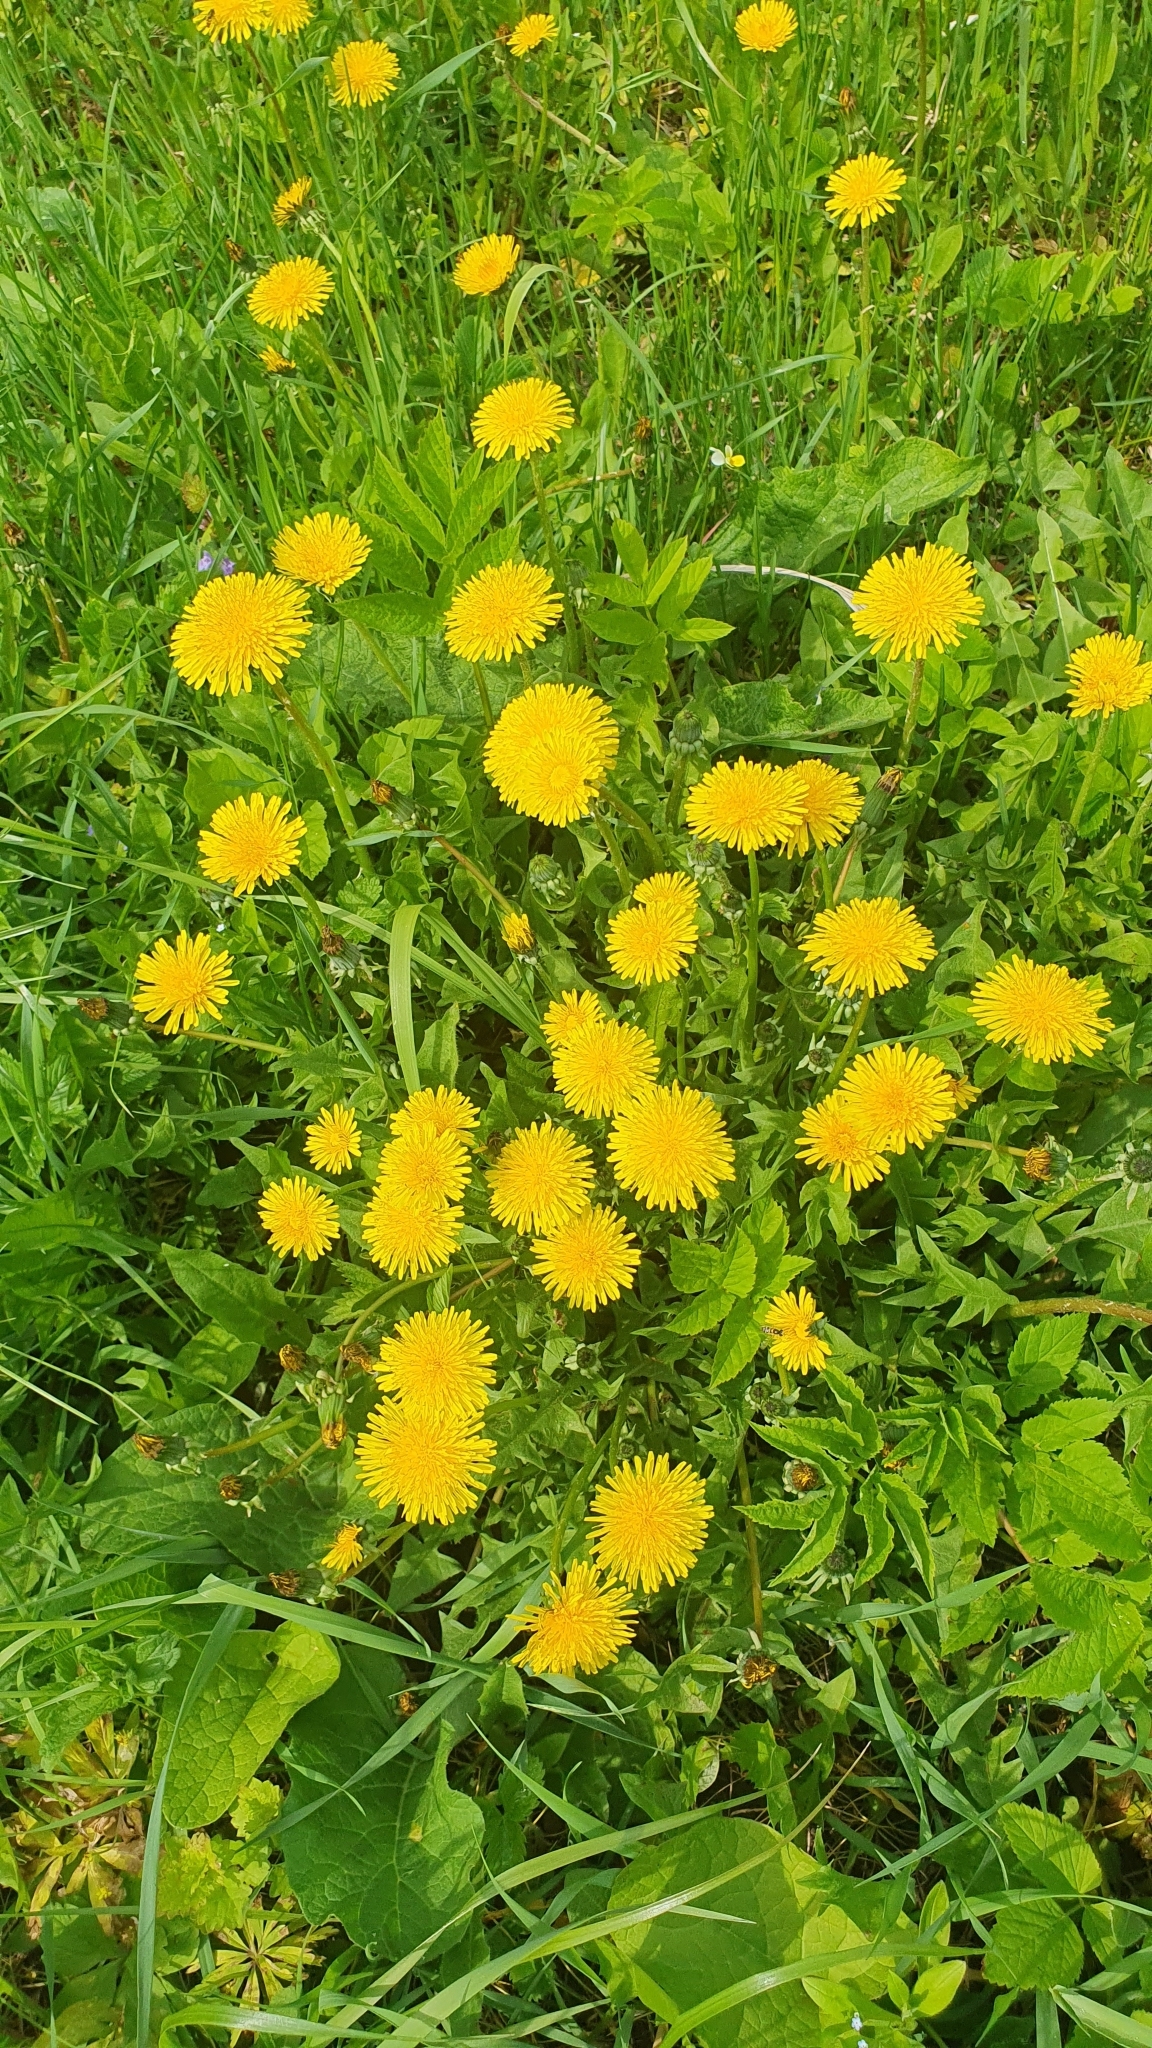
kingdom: Plantae
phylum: Tracheophyta
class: Magnoliopsida
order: Asterales
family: Asteraceae
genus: Taraxacum
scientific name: Taraxacum officinale
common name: Common dandelion
